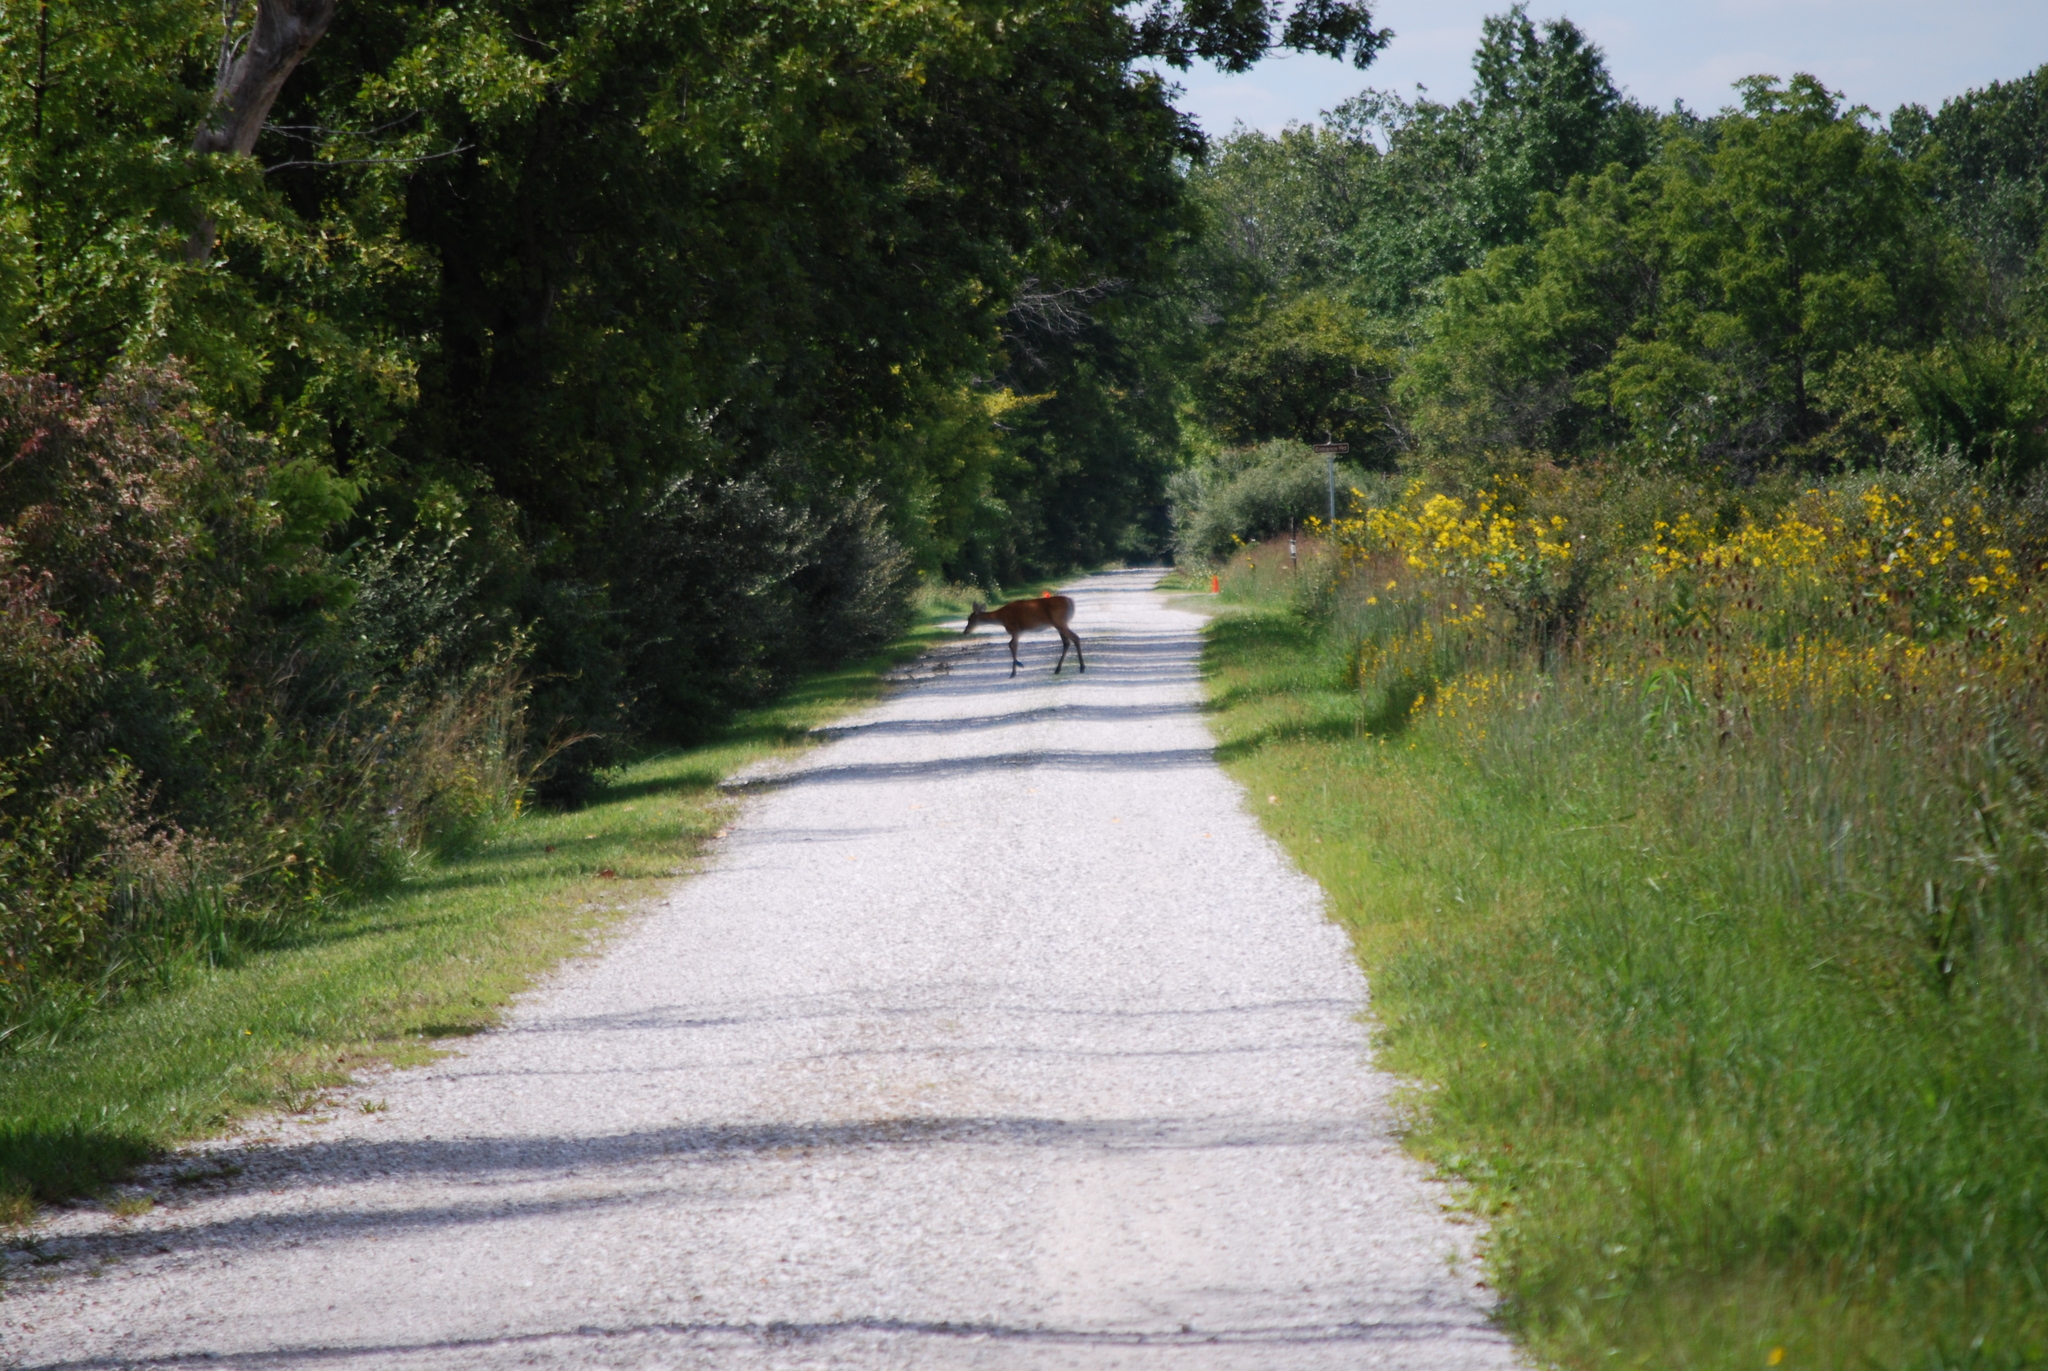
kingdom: Animalia
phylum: Chordata
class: Mammalia
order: Artiodactyla
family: Cervidae
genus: Odocoileus
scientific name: Odocoileus virginianus
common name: White-tailed deer
